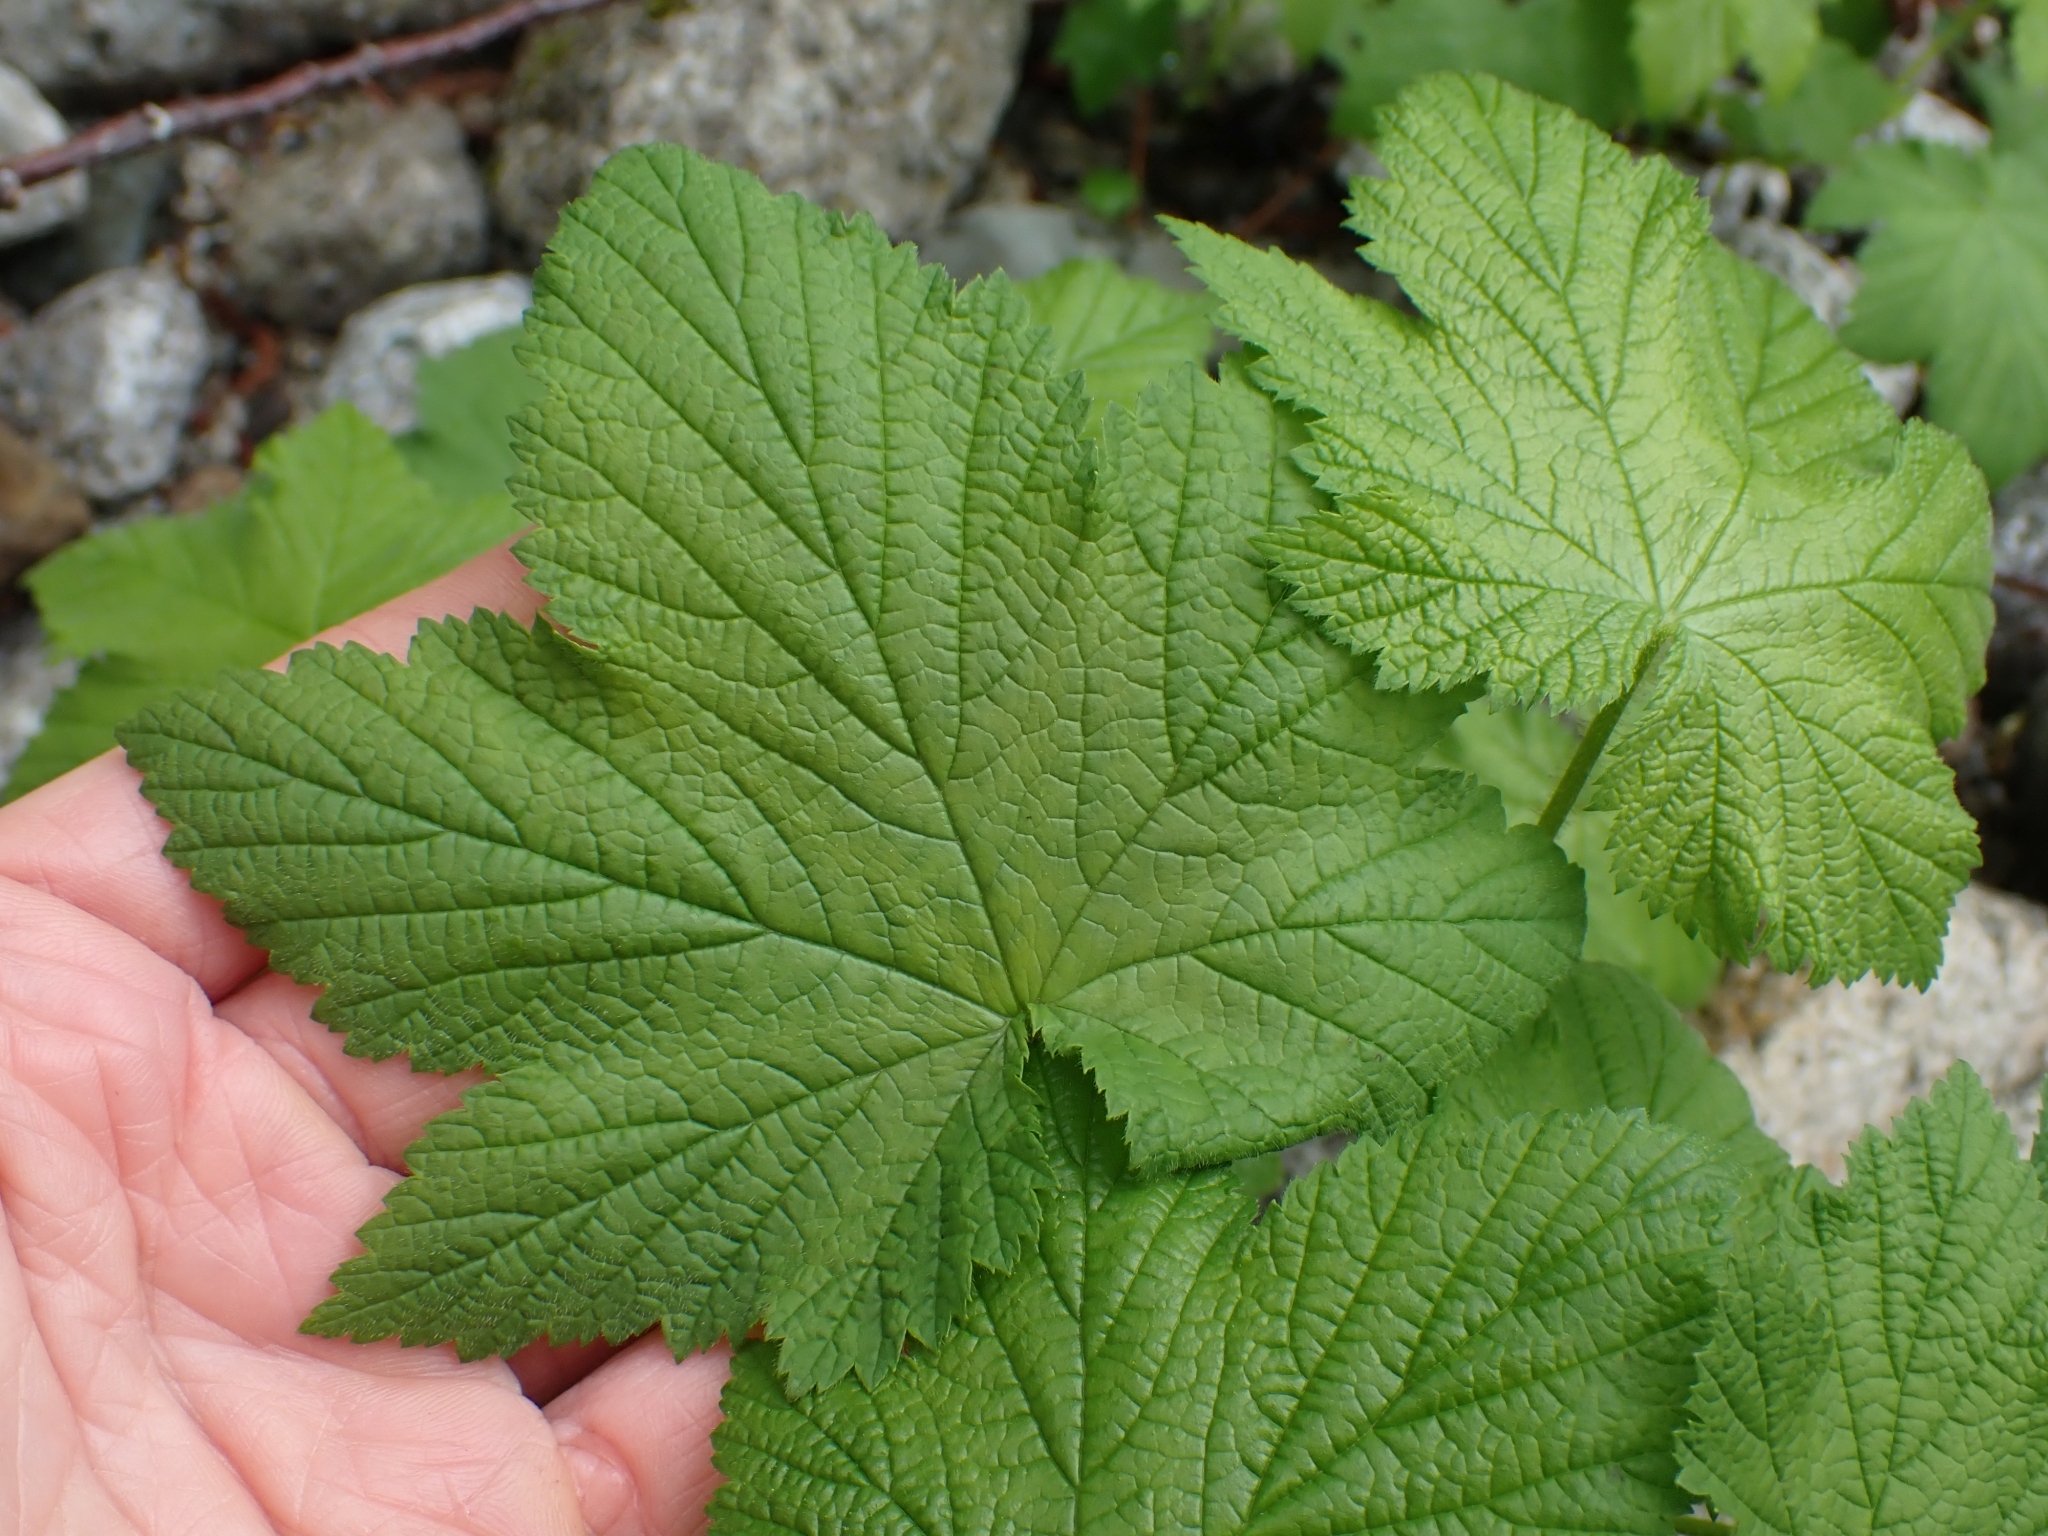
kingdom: Plantae
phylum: Tracheophyta
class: Magnoliopsida
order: Rosales
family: Rosaceae
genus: Rubus
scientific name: Rubus parviflorus
